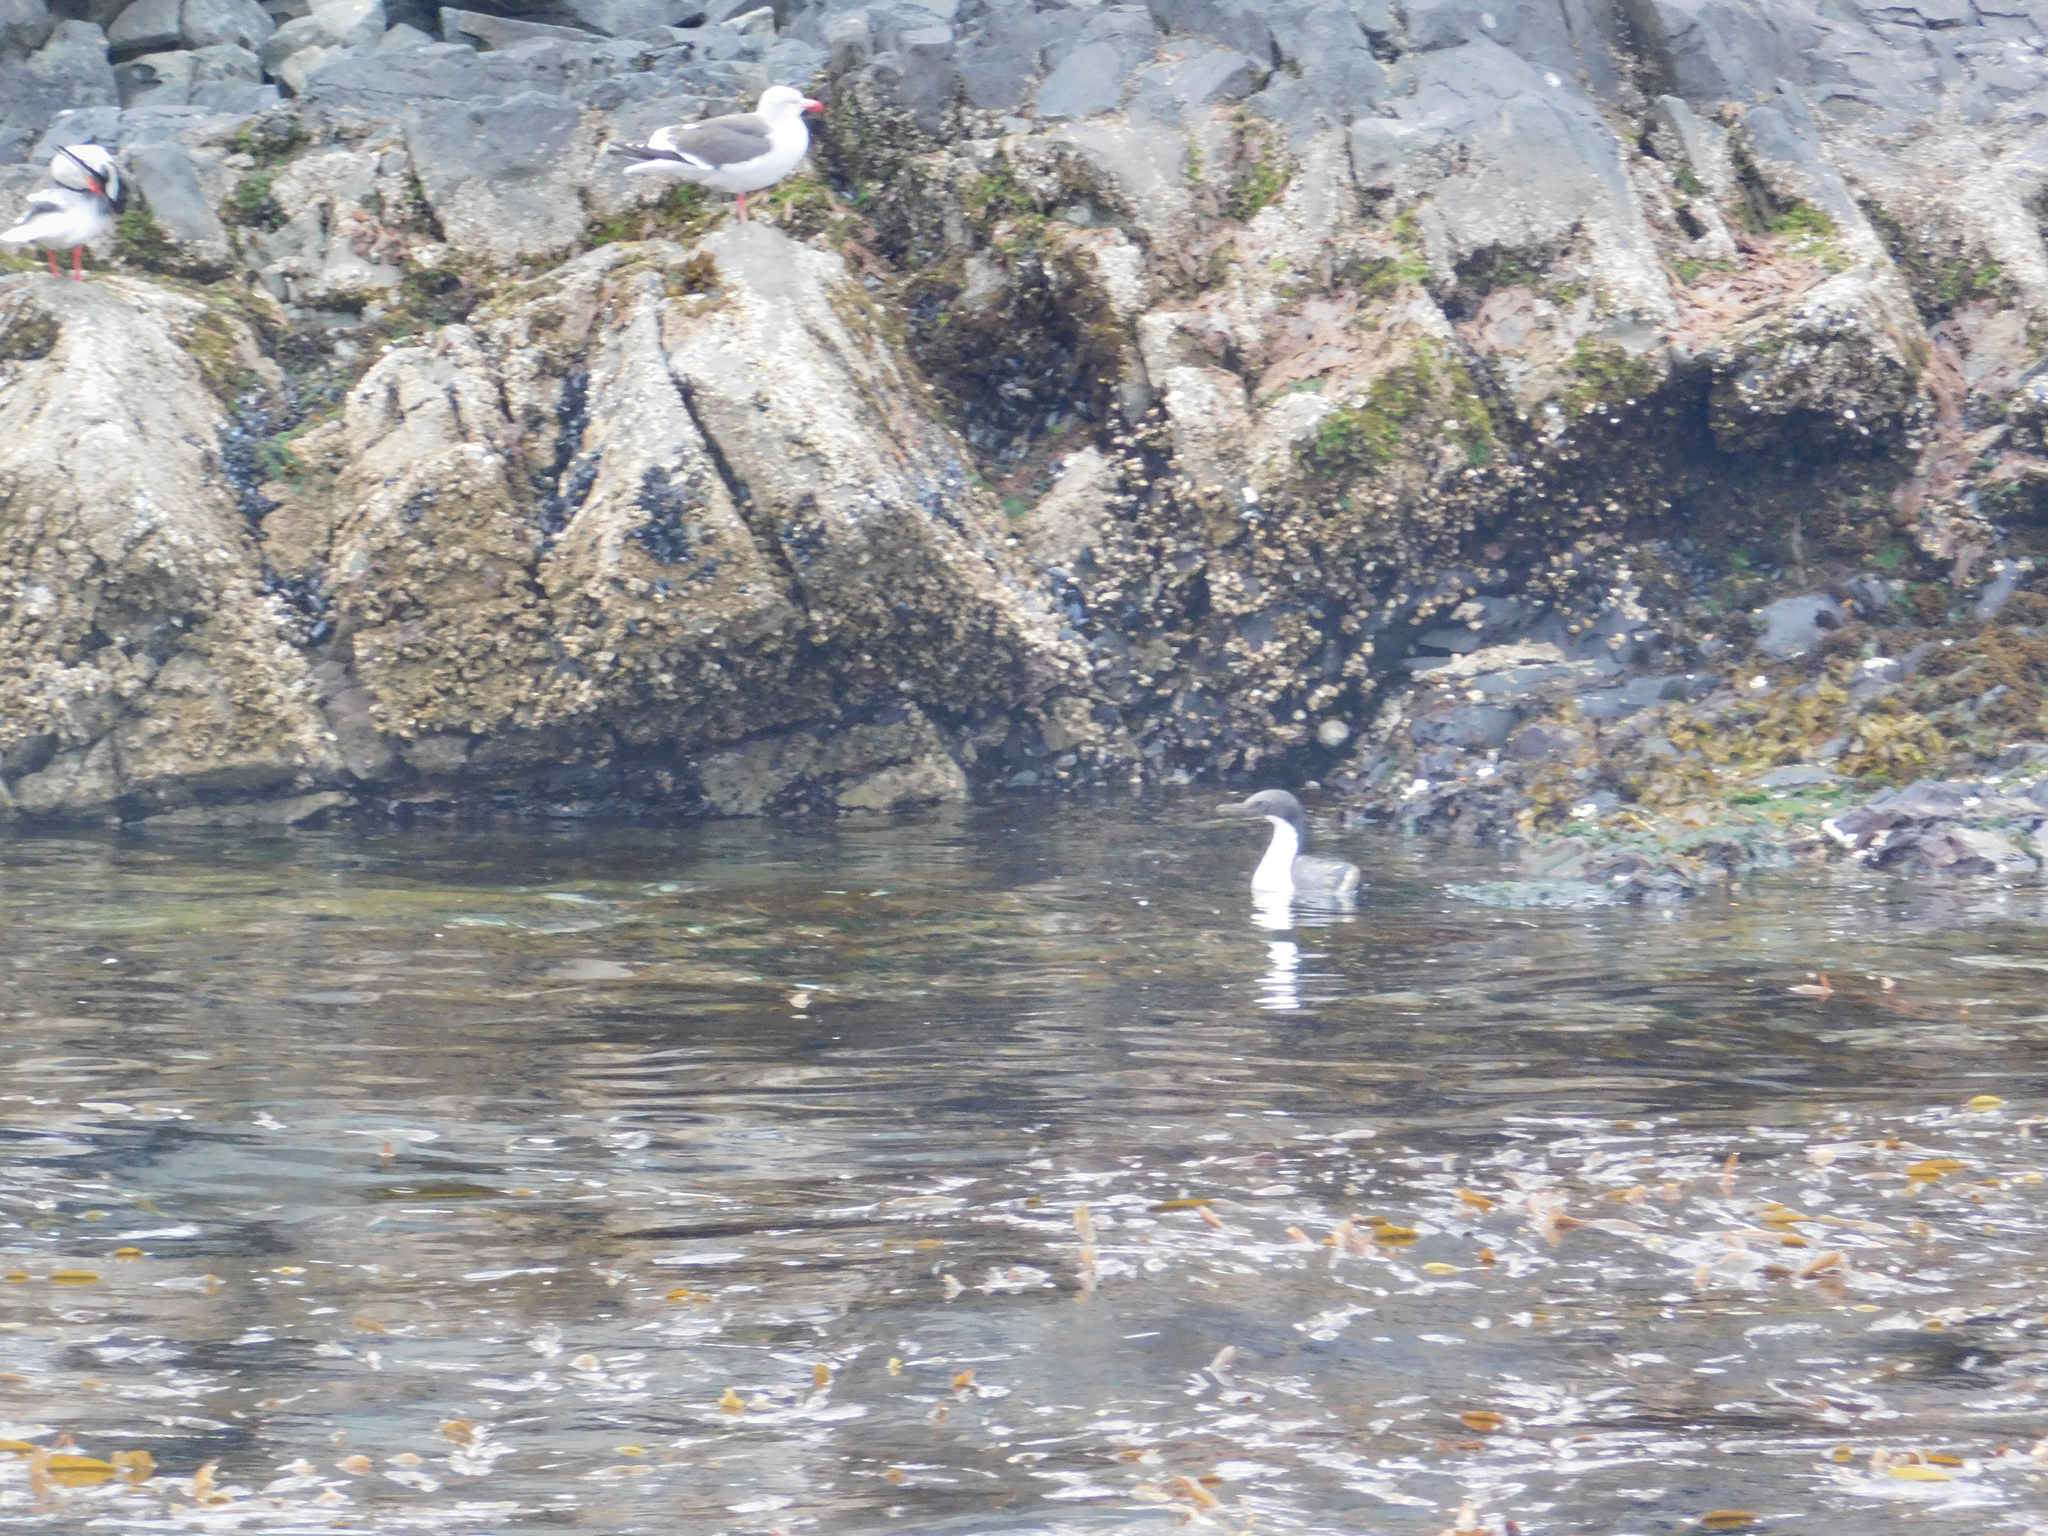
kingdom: Animalia
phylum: Chordata
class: Aves
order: Suliformes
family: Phalacrocoracidae
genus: Leucocarbo
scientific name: Leucocarbo atriceps
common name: Imperial shag
